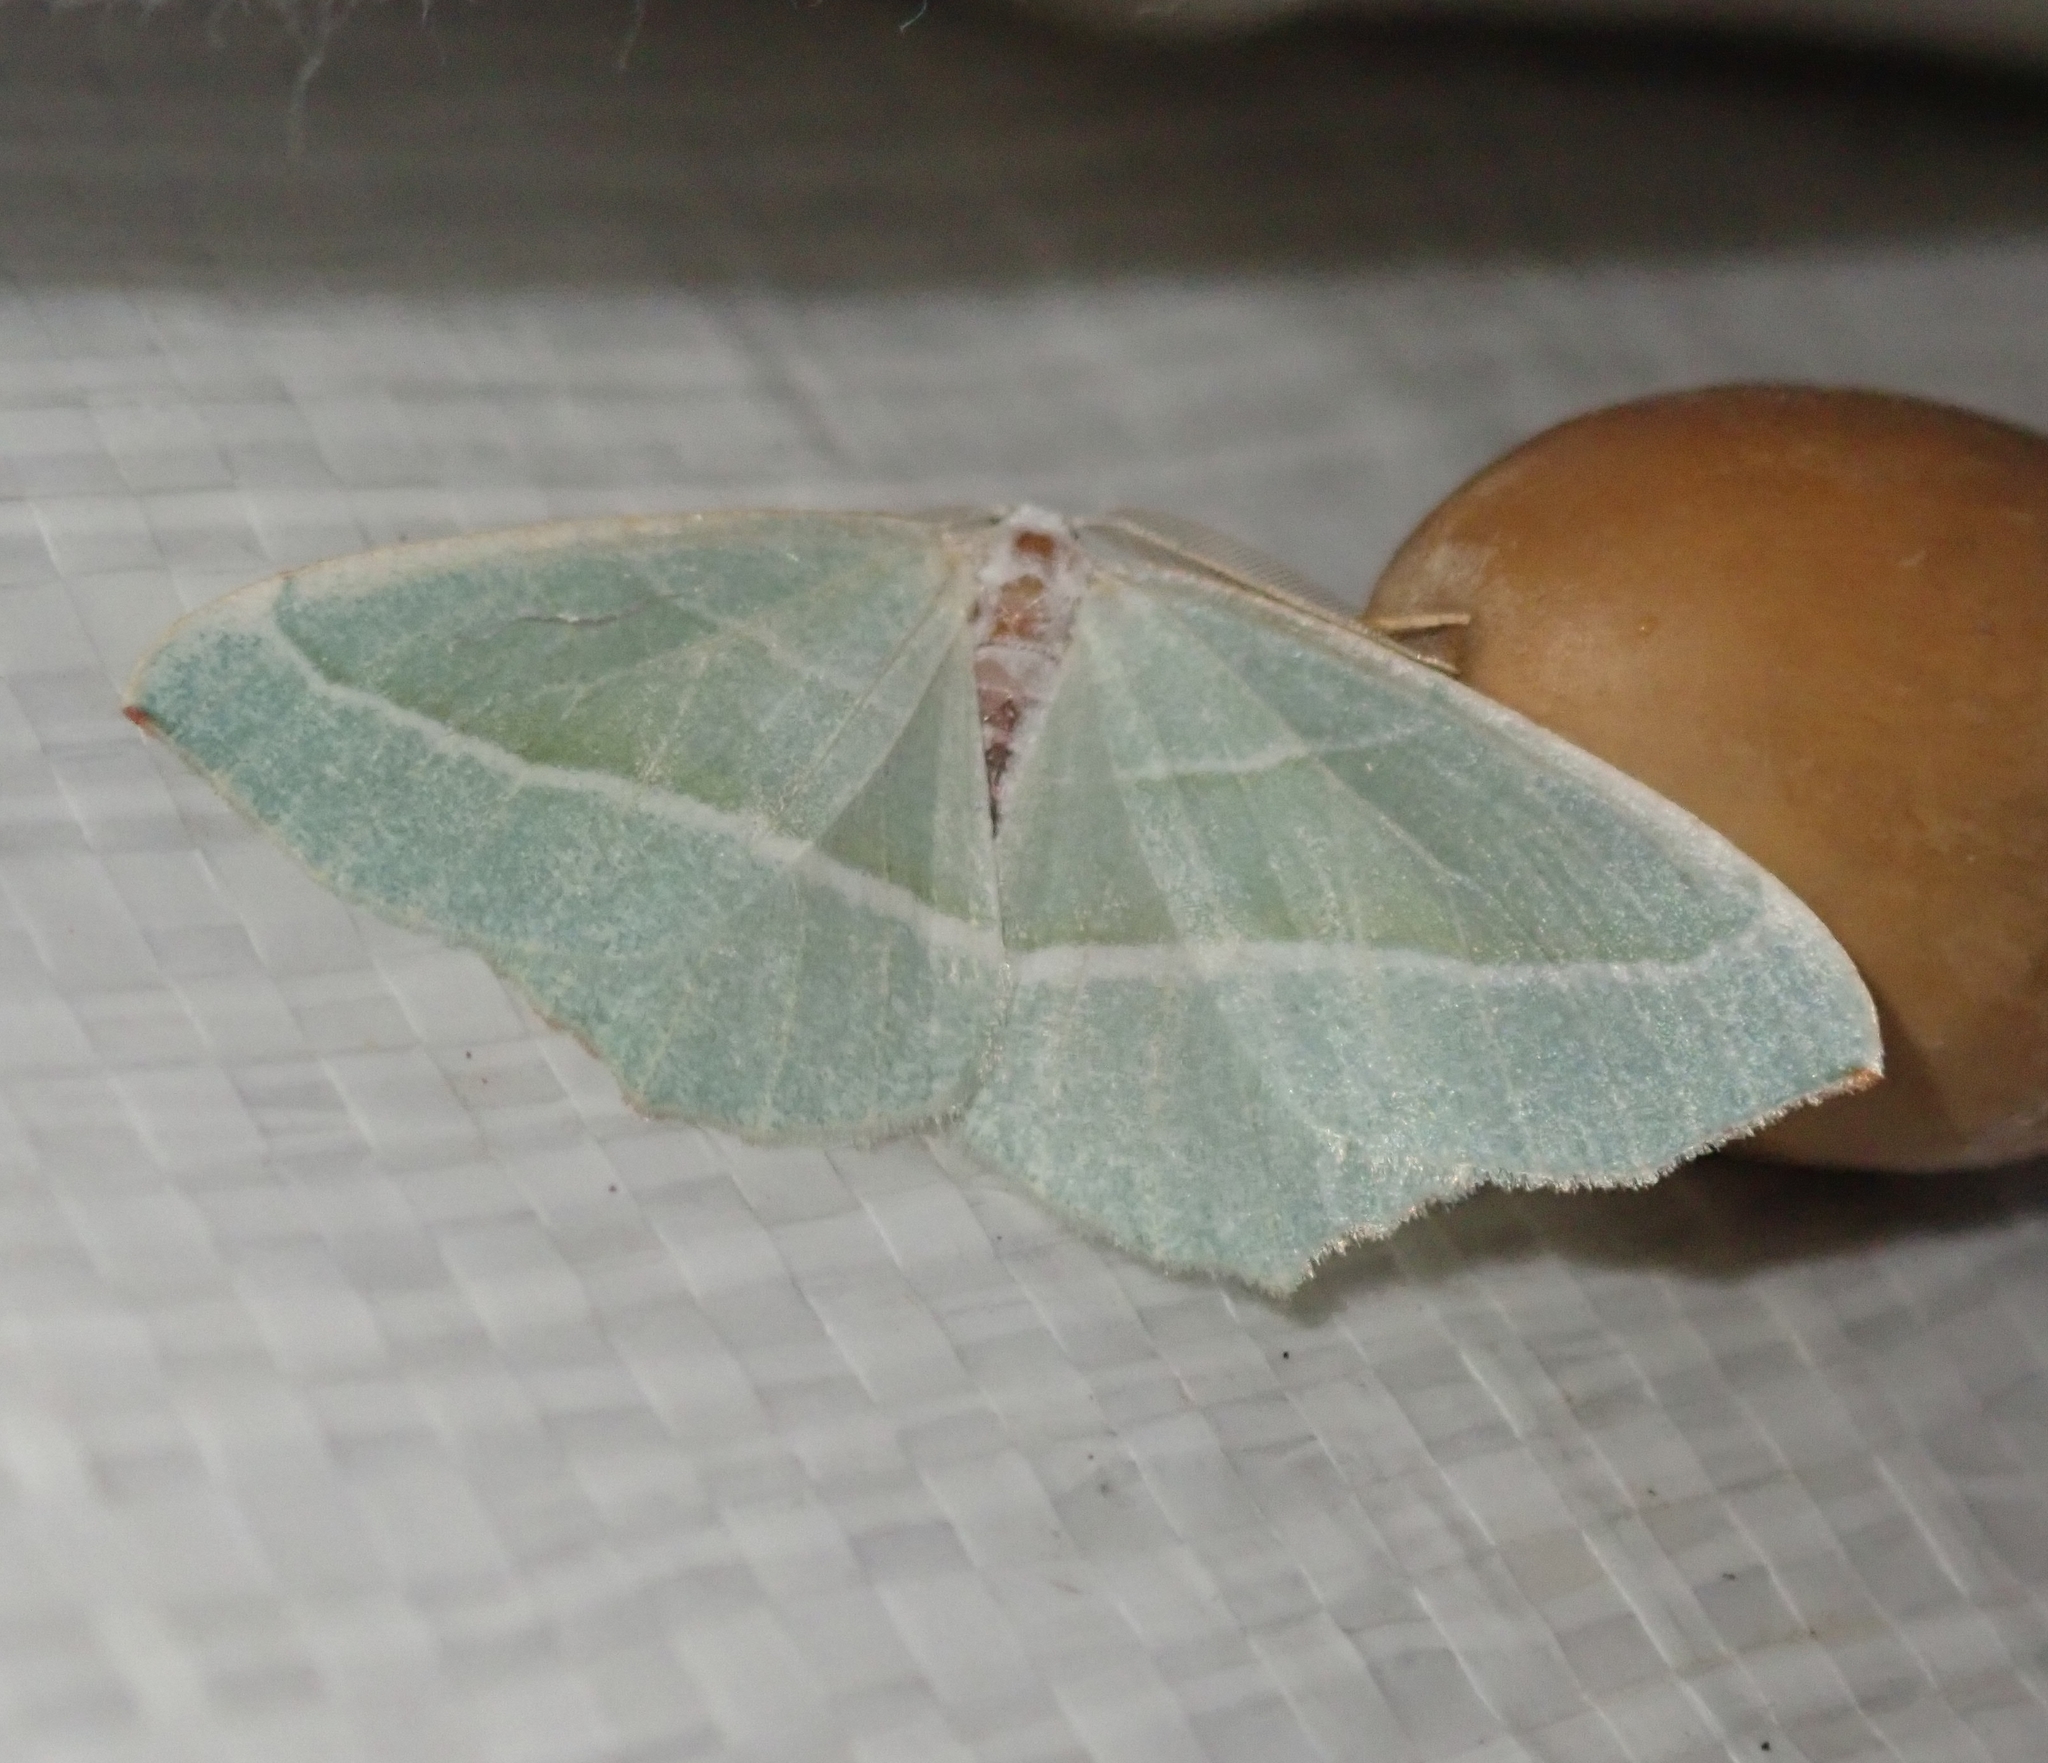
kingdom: Animalia
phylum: Arthropoda
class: Insecta
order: Lepidoptera
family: Geometridae
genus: Campaea
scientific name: Campaea margaritaria
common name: Light emerald
